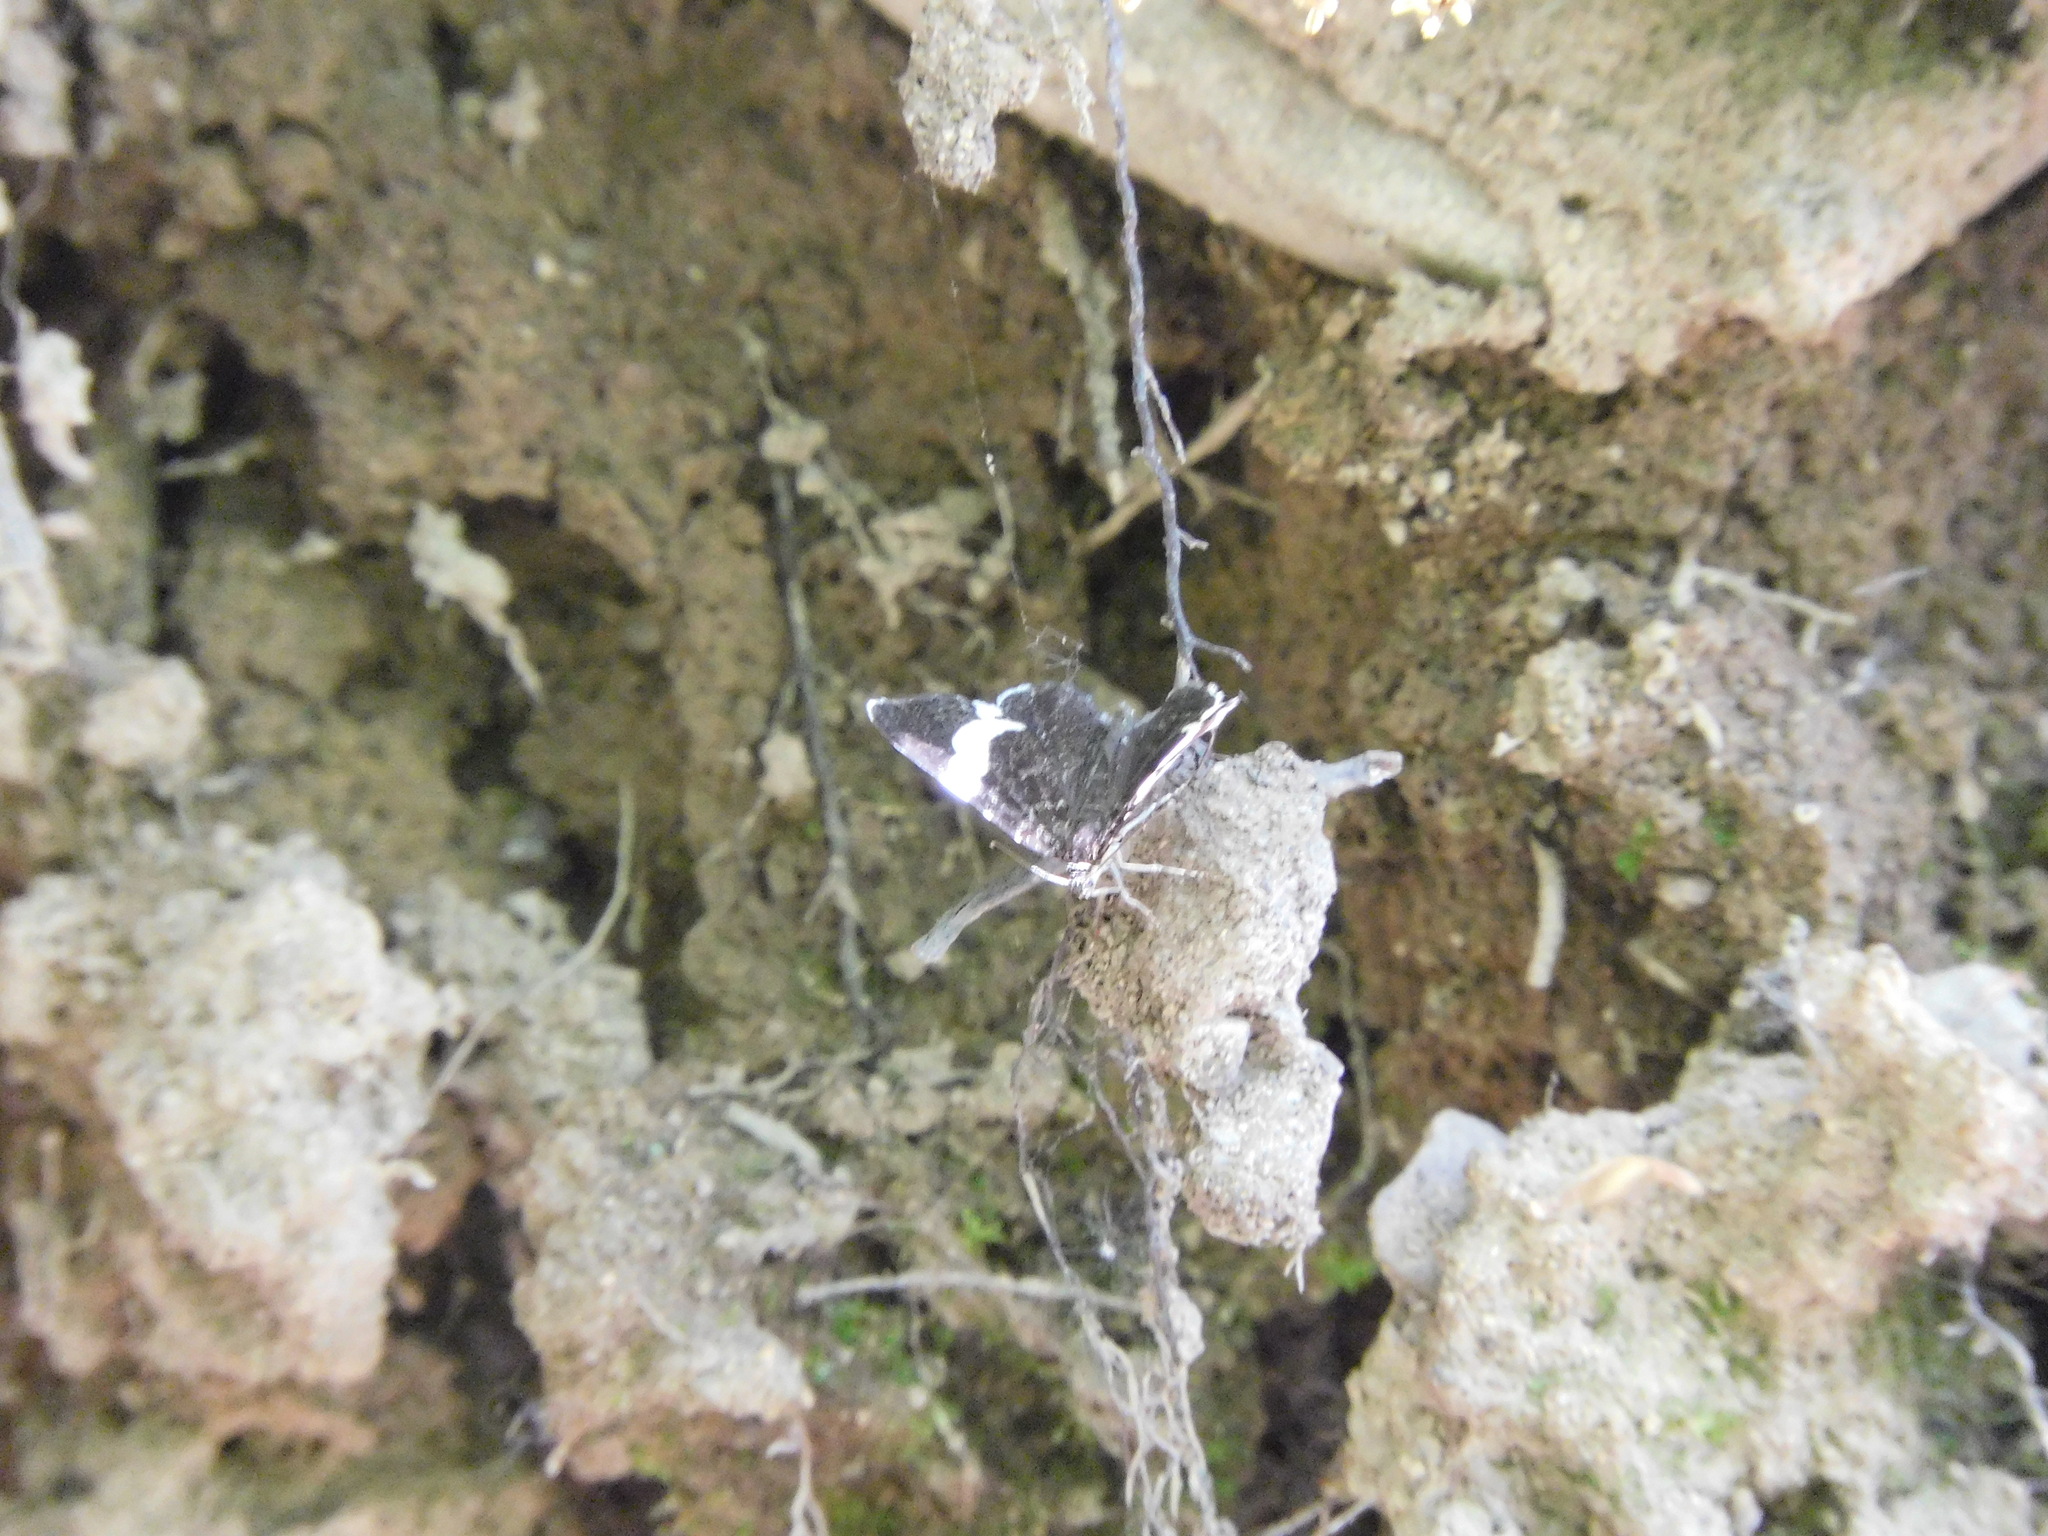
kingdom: Animalia
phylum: Arthropoda
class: Insecta
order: Lepidoptera
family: Geometridae
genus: Trichodezia
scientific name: Trichodezia albovittata
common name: White striped black
